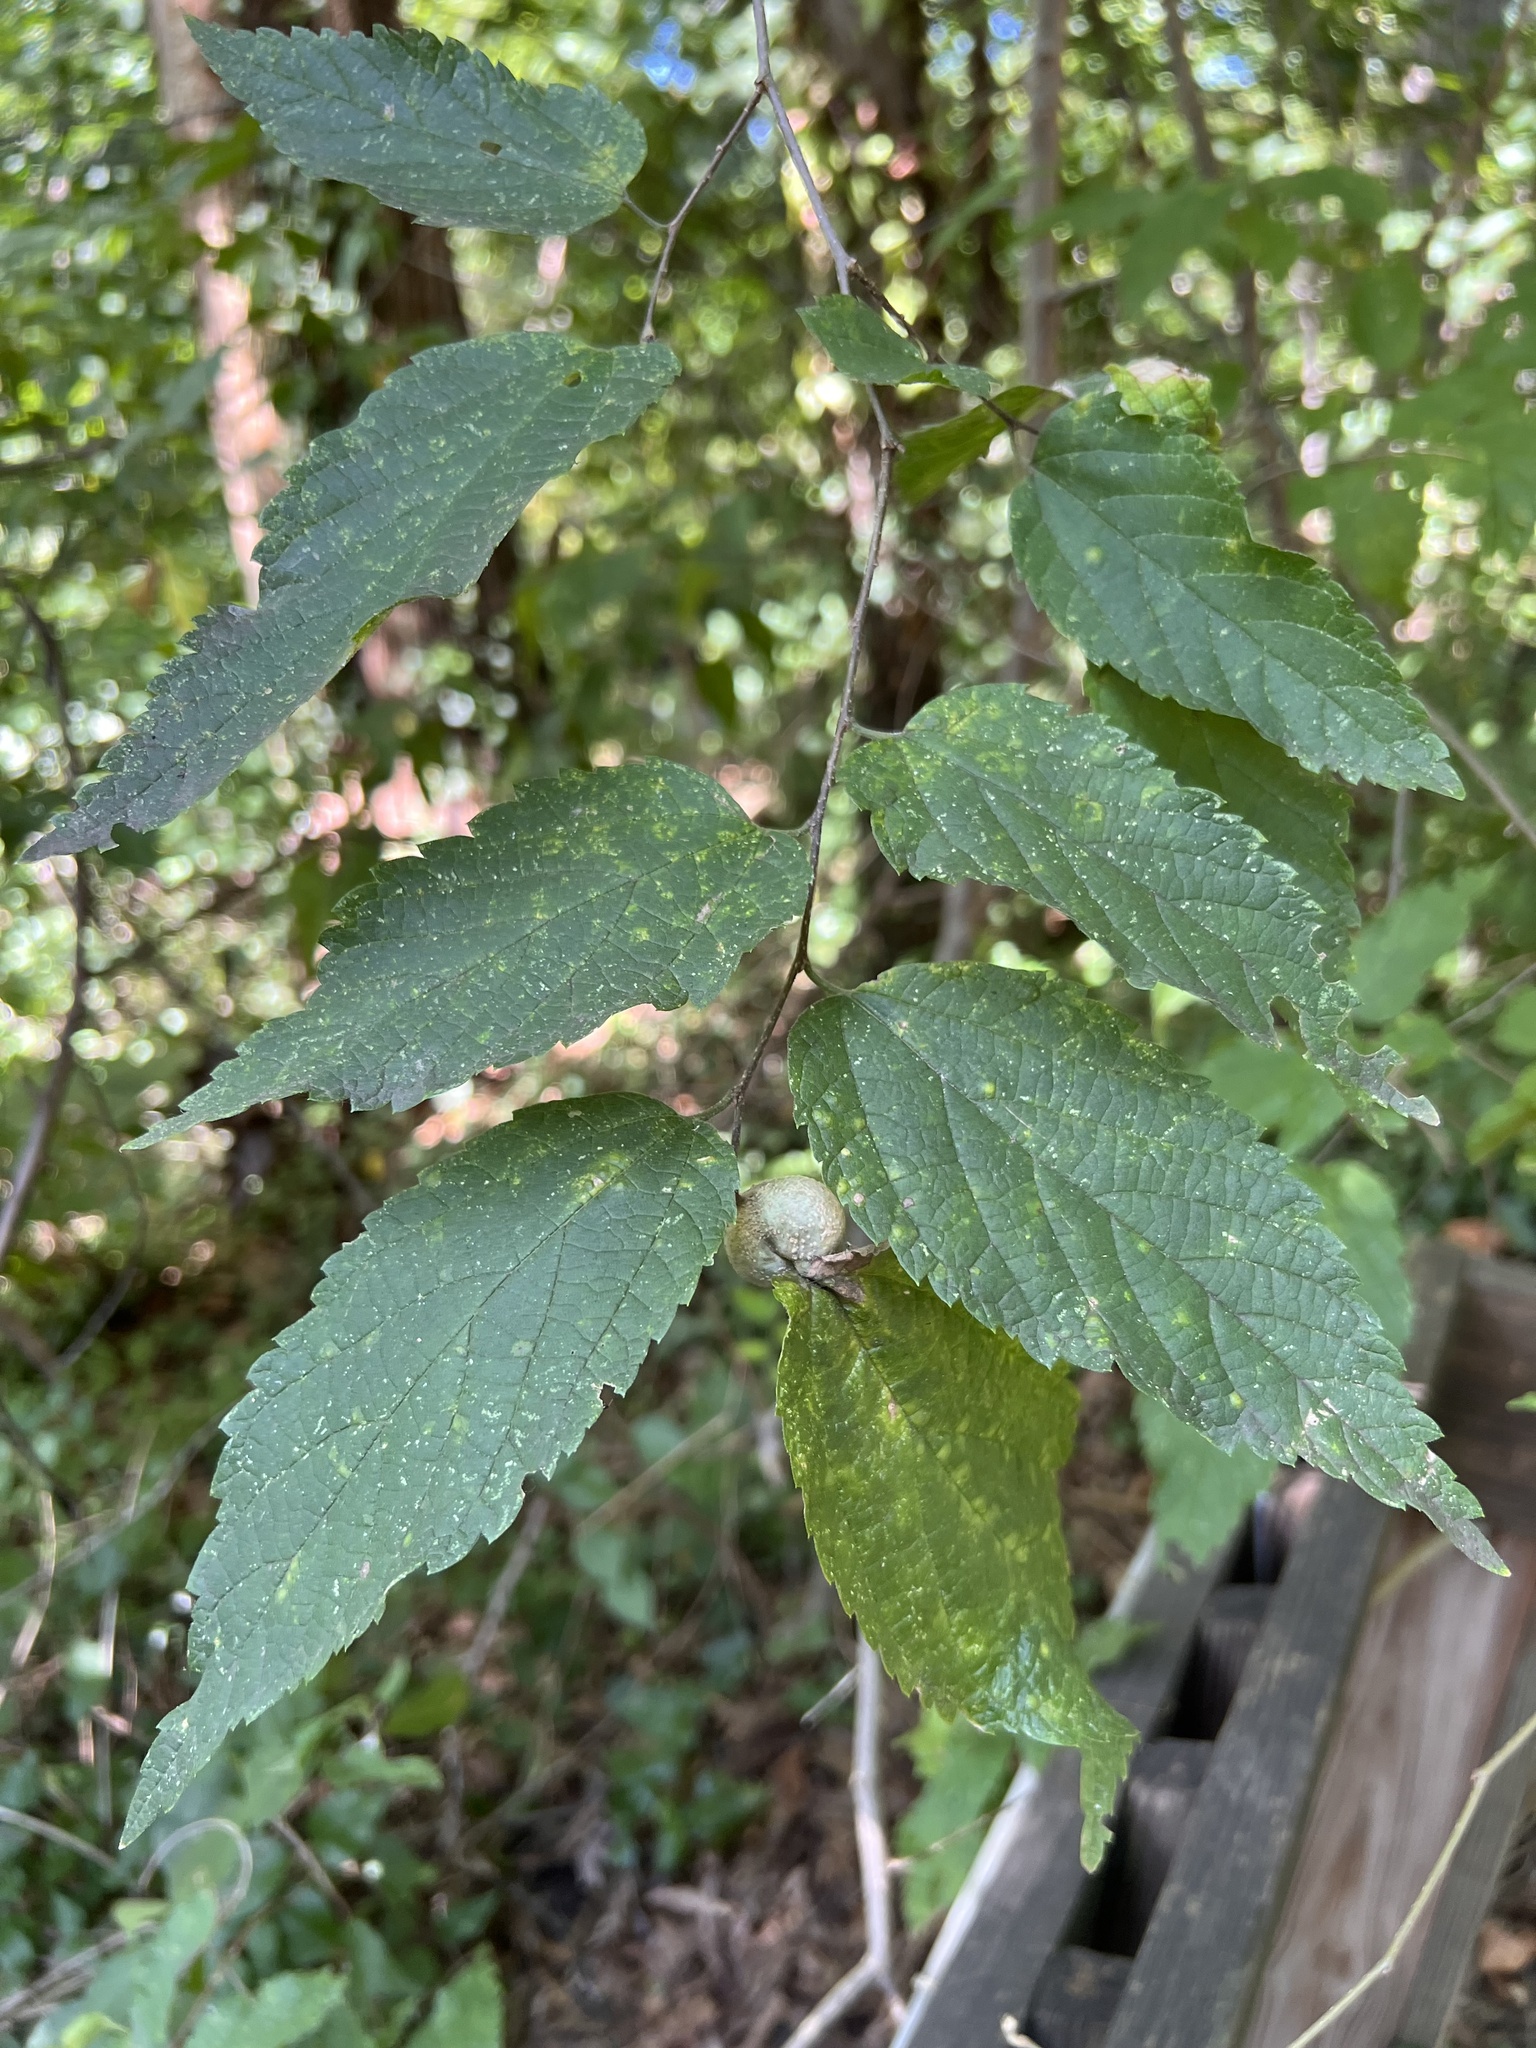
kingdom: Animalia
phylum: Arthropoda
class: Insecta
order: Hemiptera
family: Aphalaridae
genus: Pachypsylla
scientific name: Pachypsylla venusta
